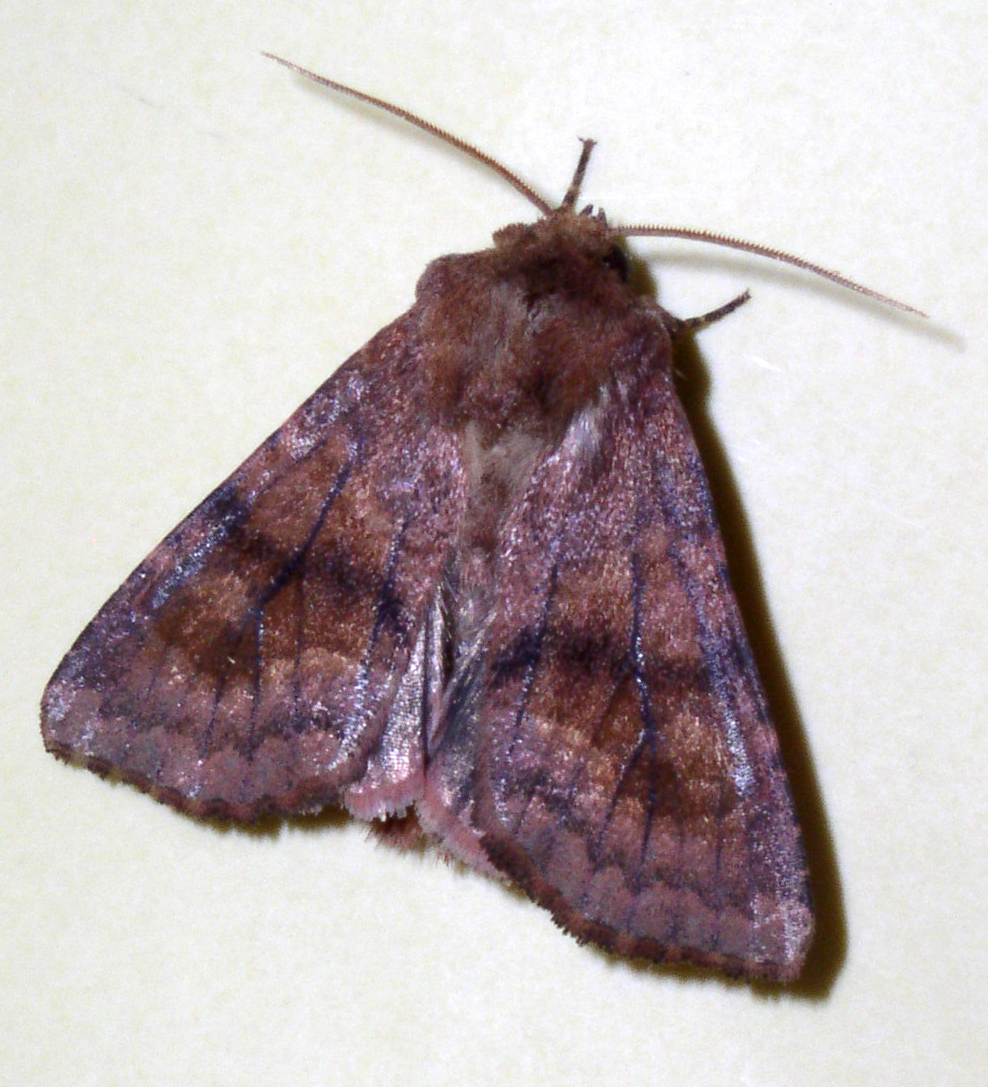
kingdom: Animalia
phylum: Arthropoda
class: Insecta
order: Lepidoptera
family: Noctuidae
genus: Nephelodes
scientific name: Nephelodes minians
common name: Bronzed cutworm
